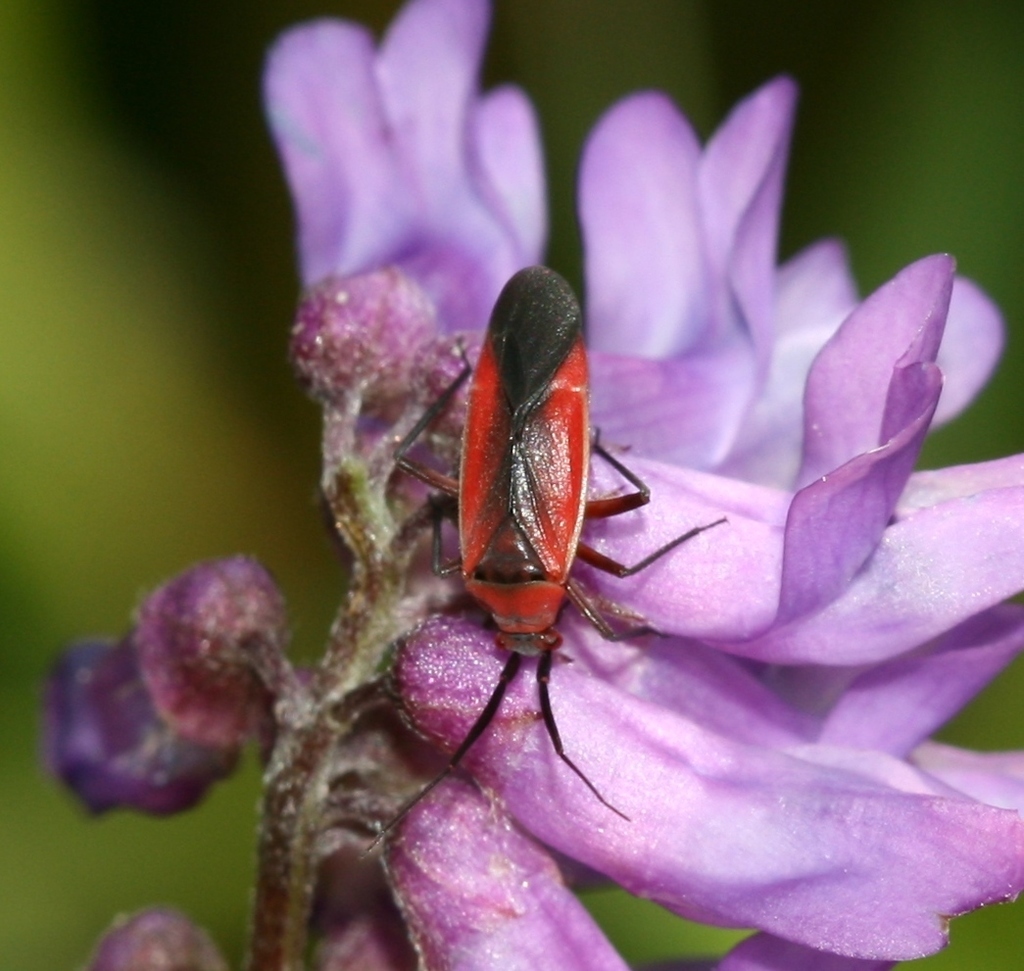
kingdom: Plantae
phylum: Tracheophyta
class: Magnoliopsida
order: Fabales
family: Fabaceae
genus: Vicia
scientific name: Vicia cracca
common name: Bird vetch
